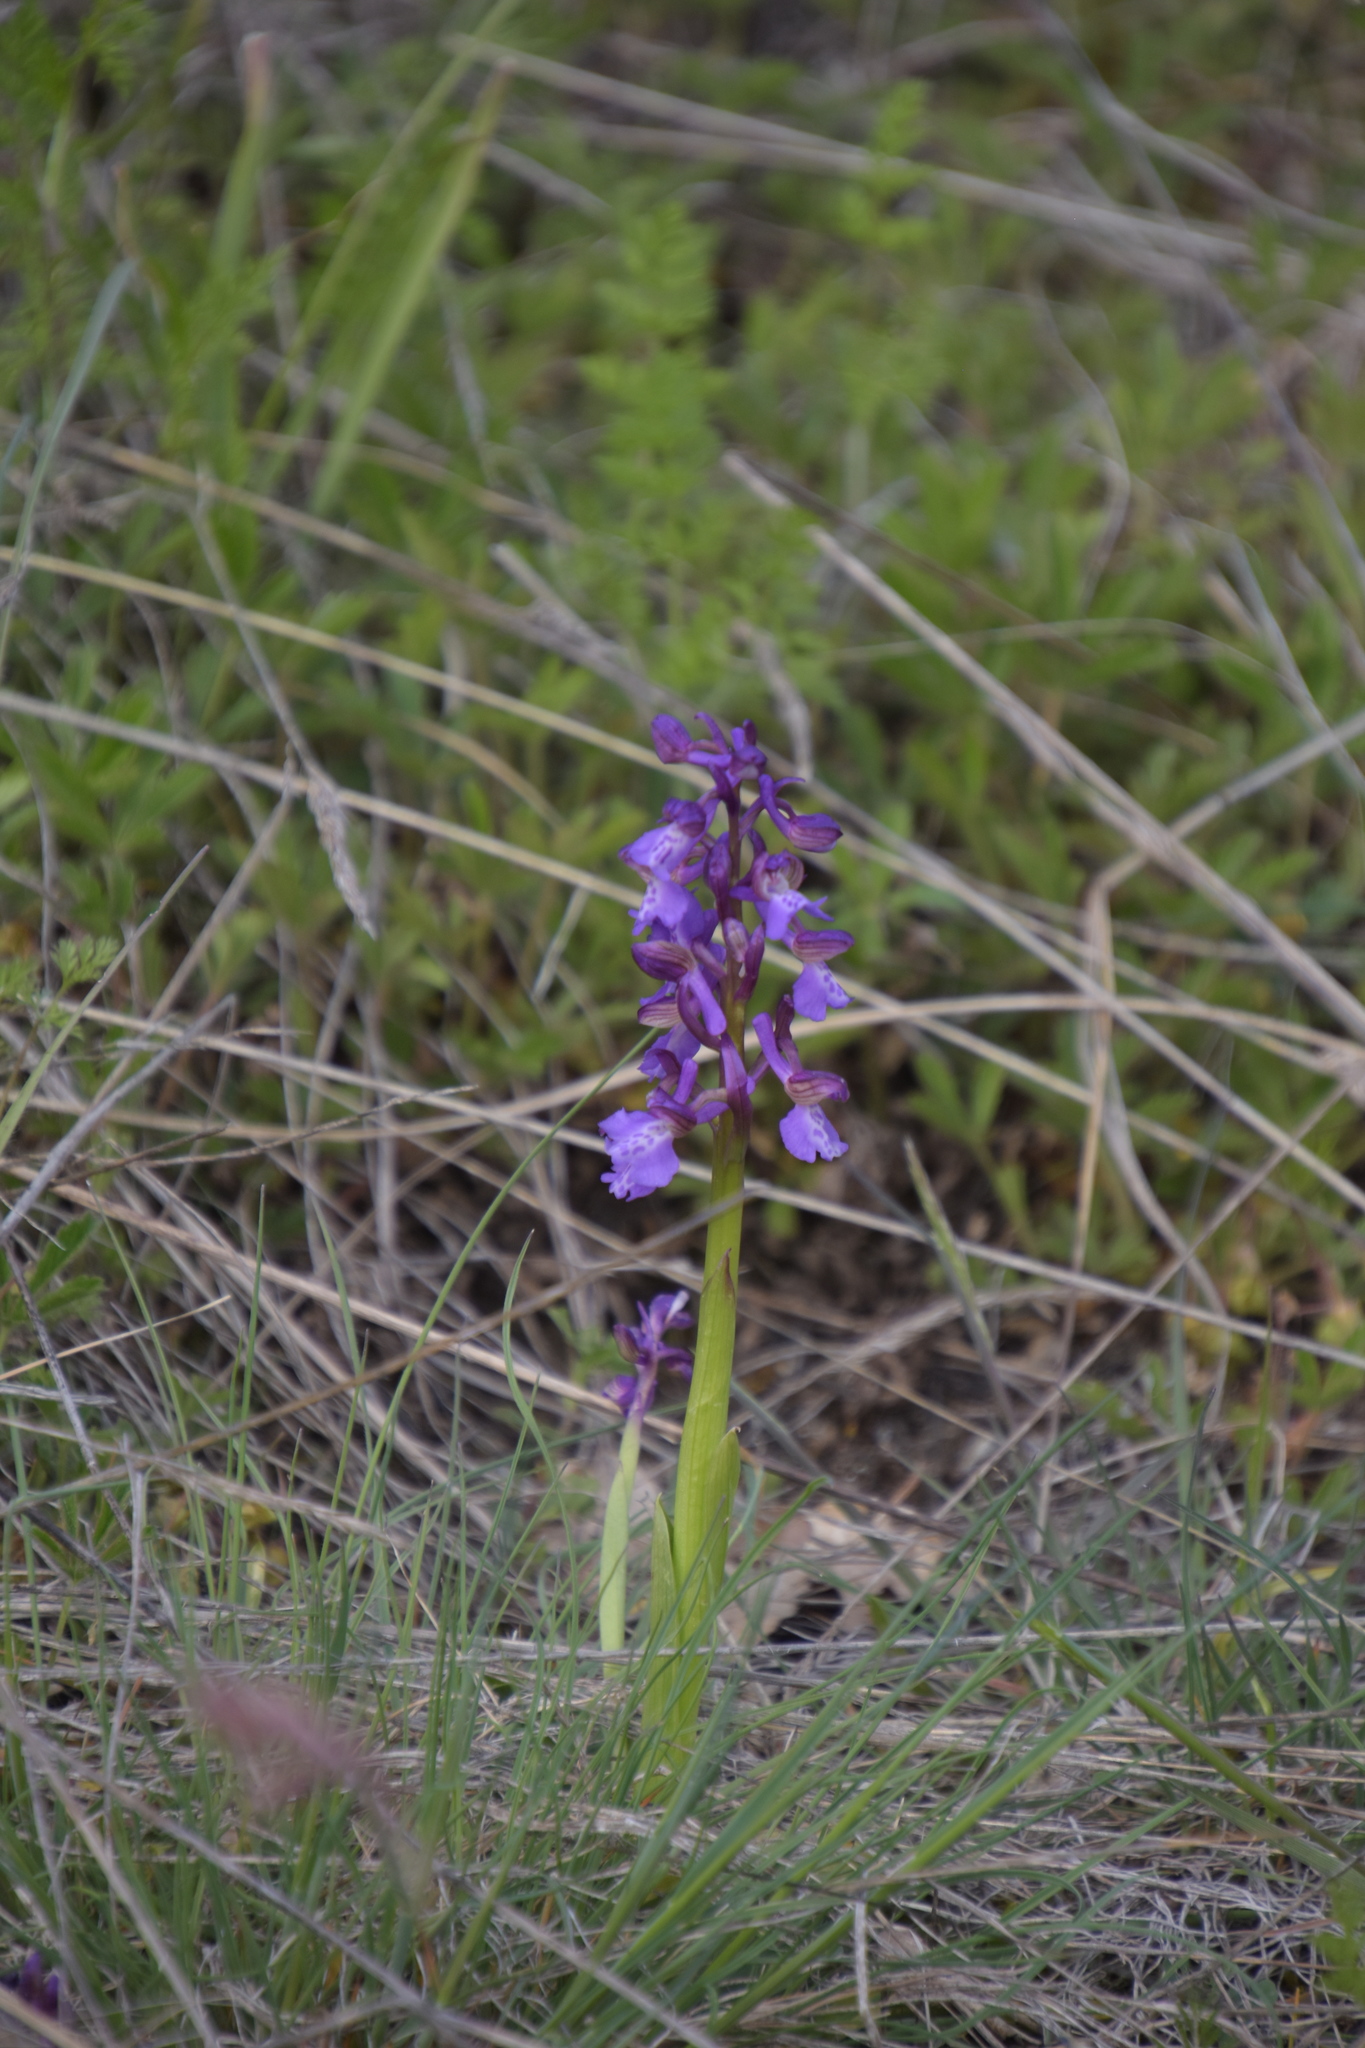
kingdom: Plantae
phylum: Tracheophyta
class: Liliopsida
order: Asparagales
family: Orchidaceae
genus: Anacamptis
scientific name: Anacamptis morio
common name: Green-winged orchid
